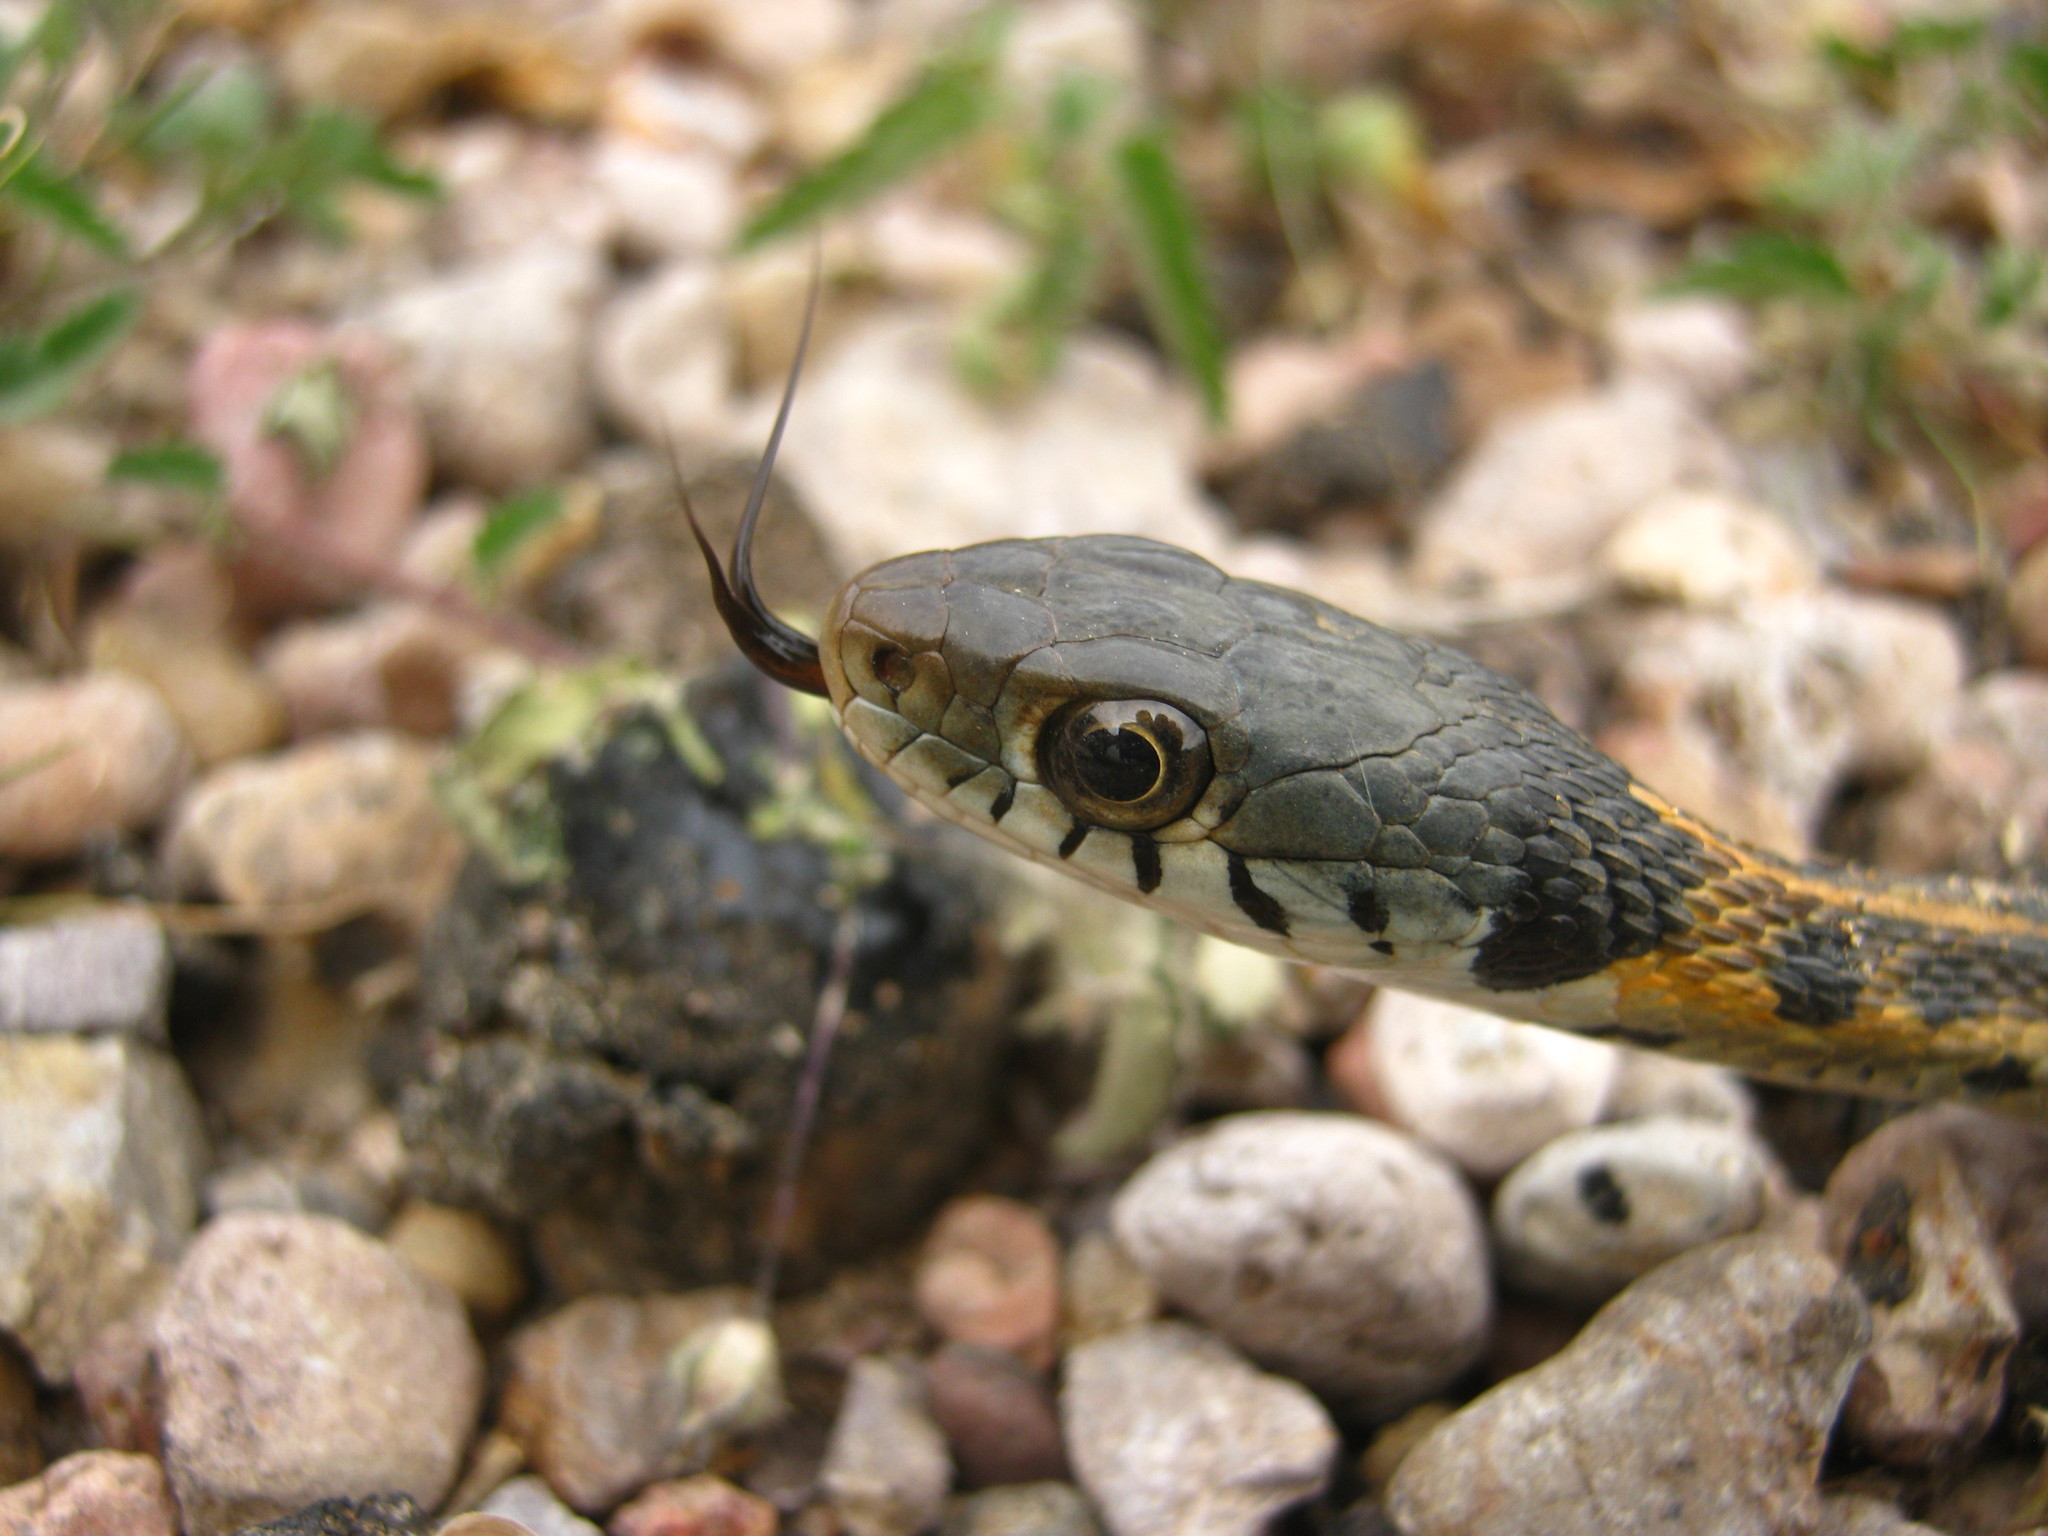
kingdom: Animalia
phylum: Chordata
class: Squamata
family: Colubridae
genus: Thamnophis
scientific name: Thamnophis cyrtopsis
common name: Black-necked gartersnake
